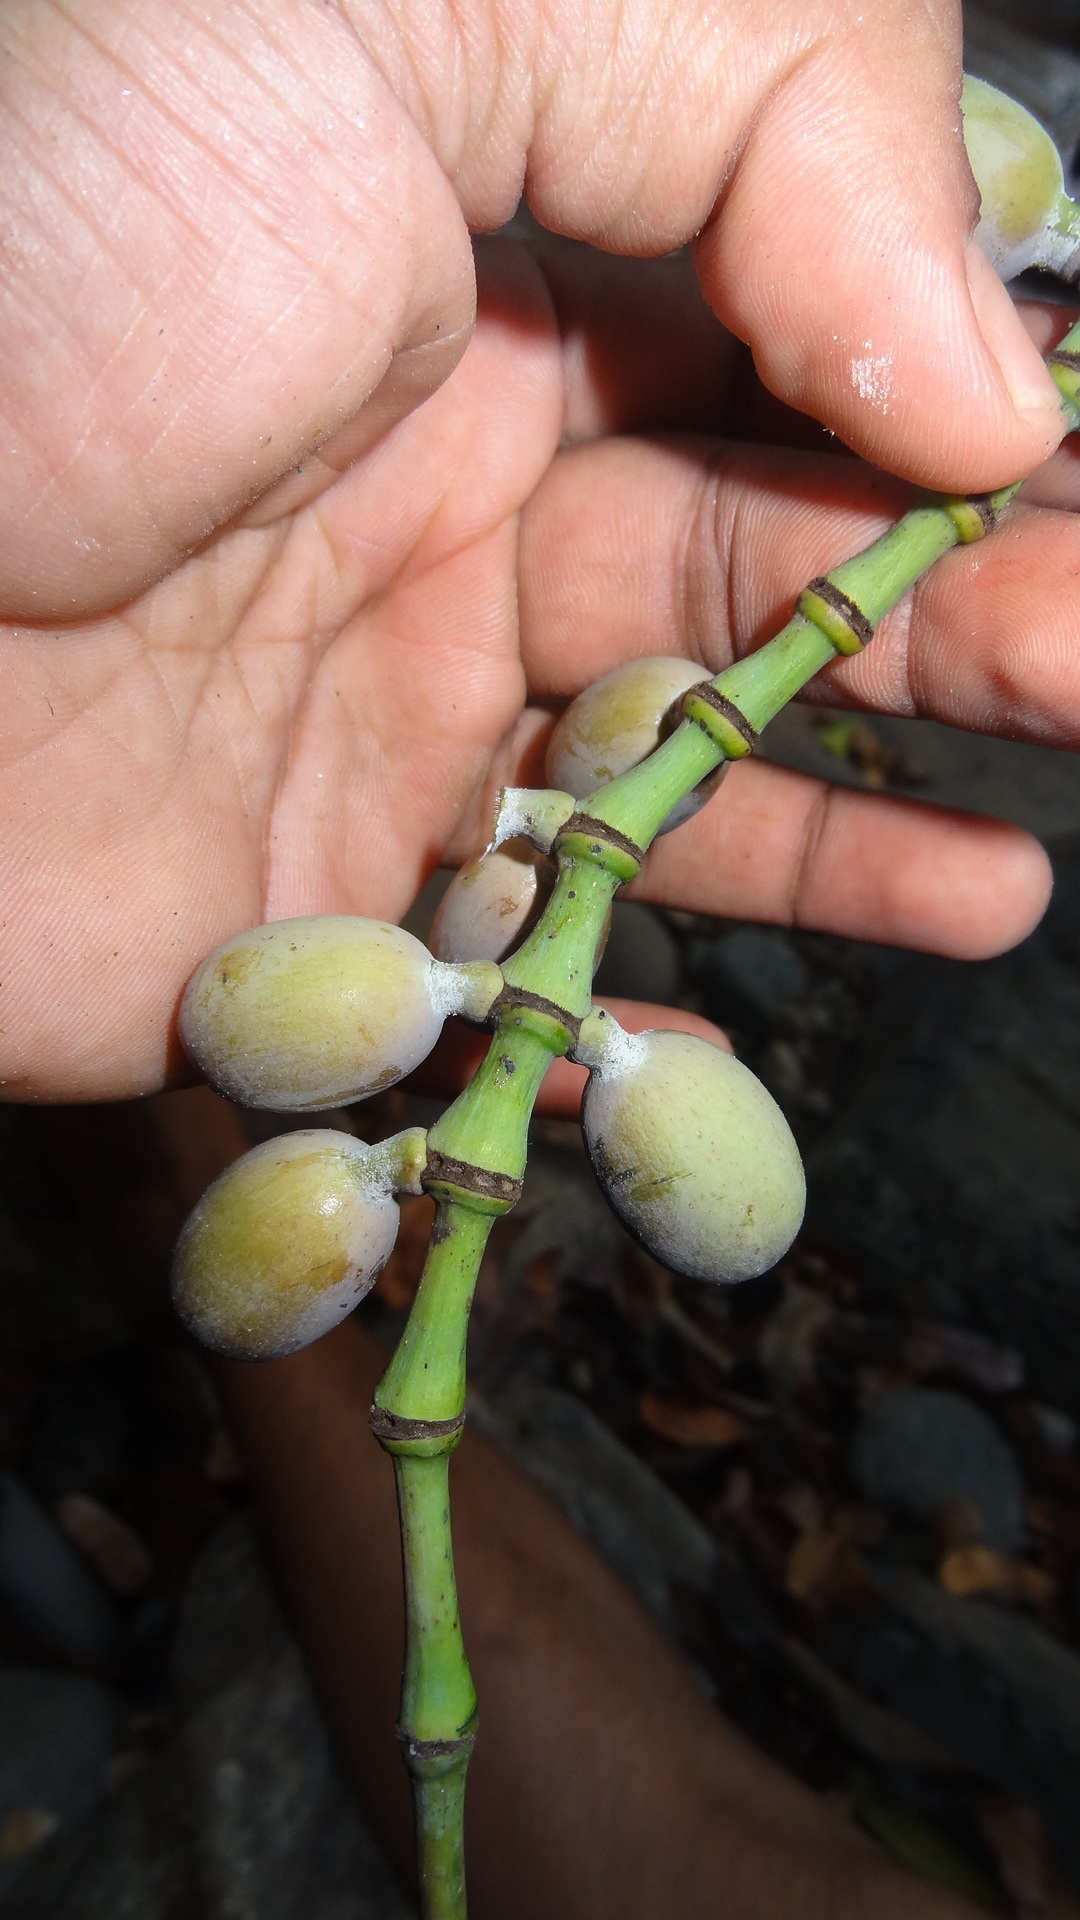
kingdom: Plantae
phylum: Tracheophyta
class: Gnetopsida
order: Gnetales
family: Gnetaceae
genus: Gnetum
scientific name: Gnetum edule
